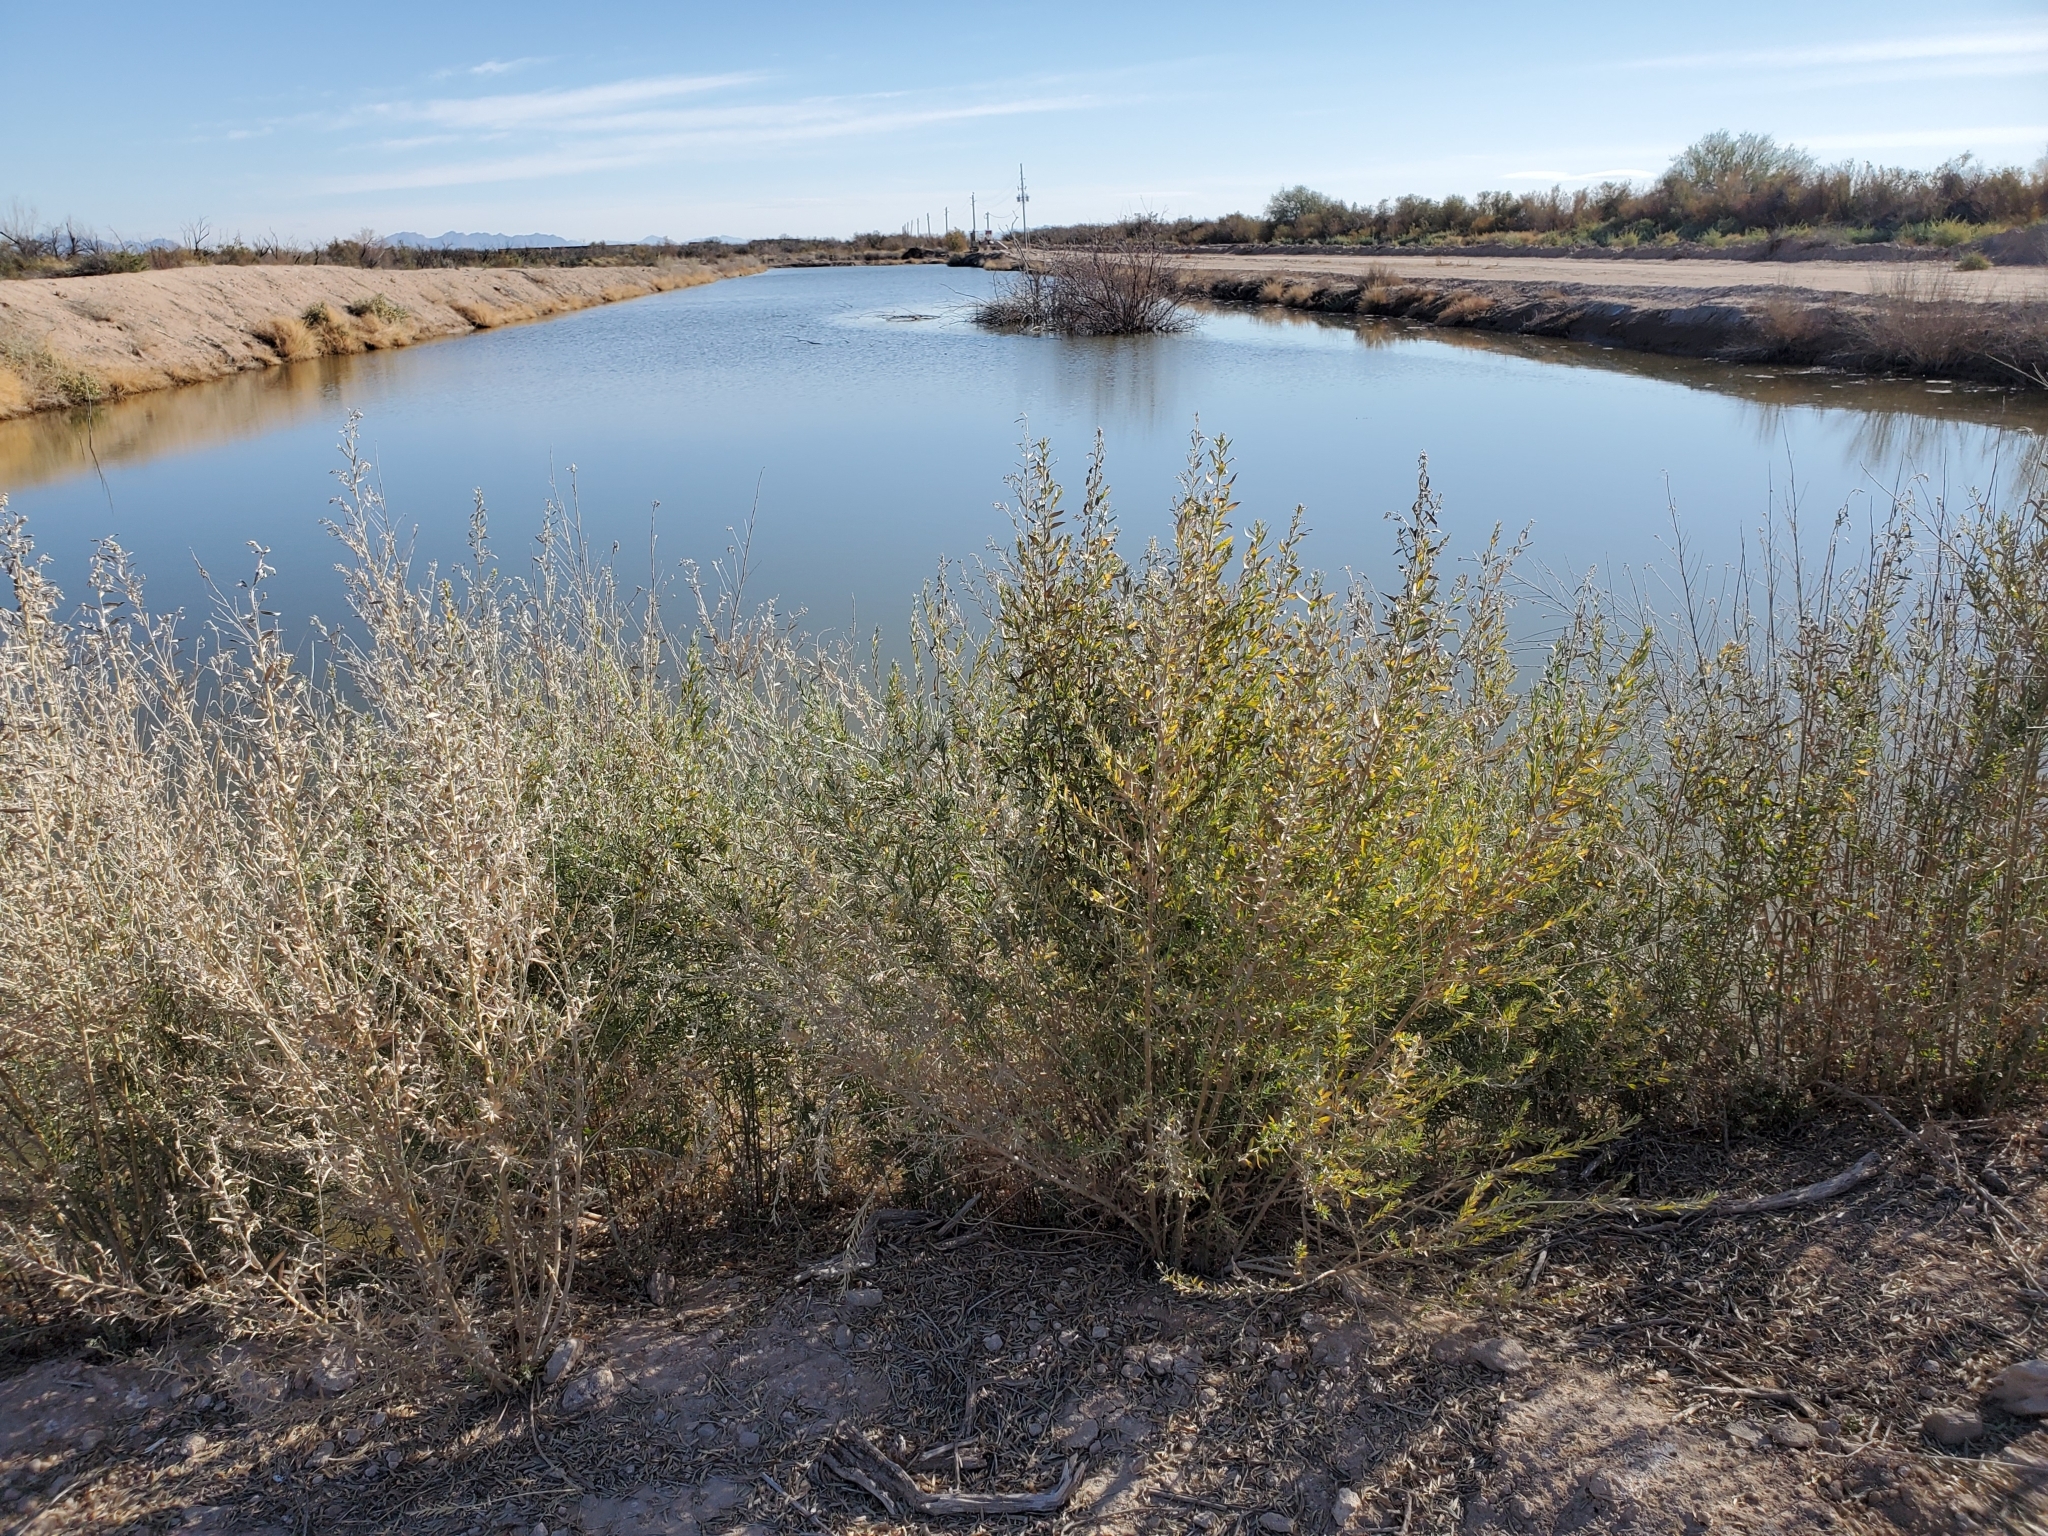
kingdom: Plantae
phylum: Tracheophyta
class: Magnoliopsida
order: Asterales
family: Asteraceae
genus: Pluchea
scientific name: Pluchea sericea
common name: Arrow-weed
